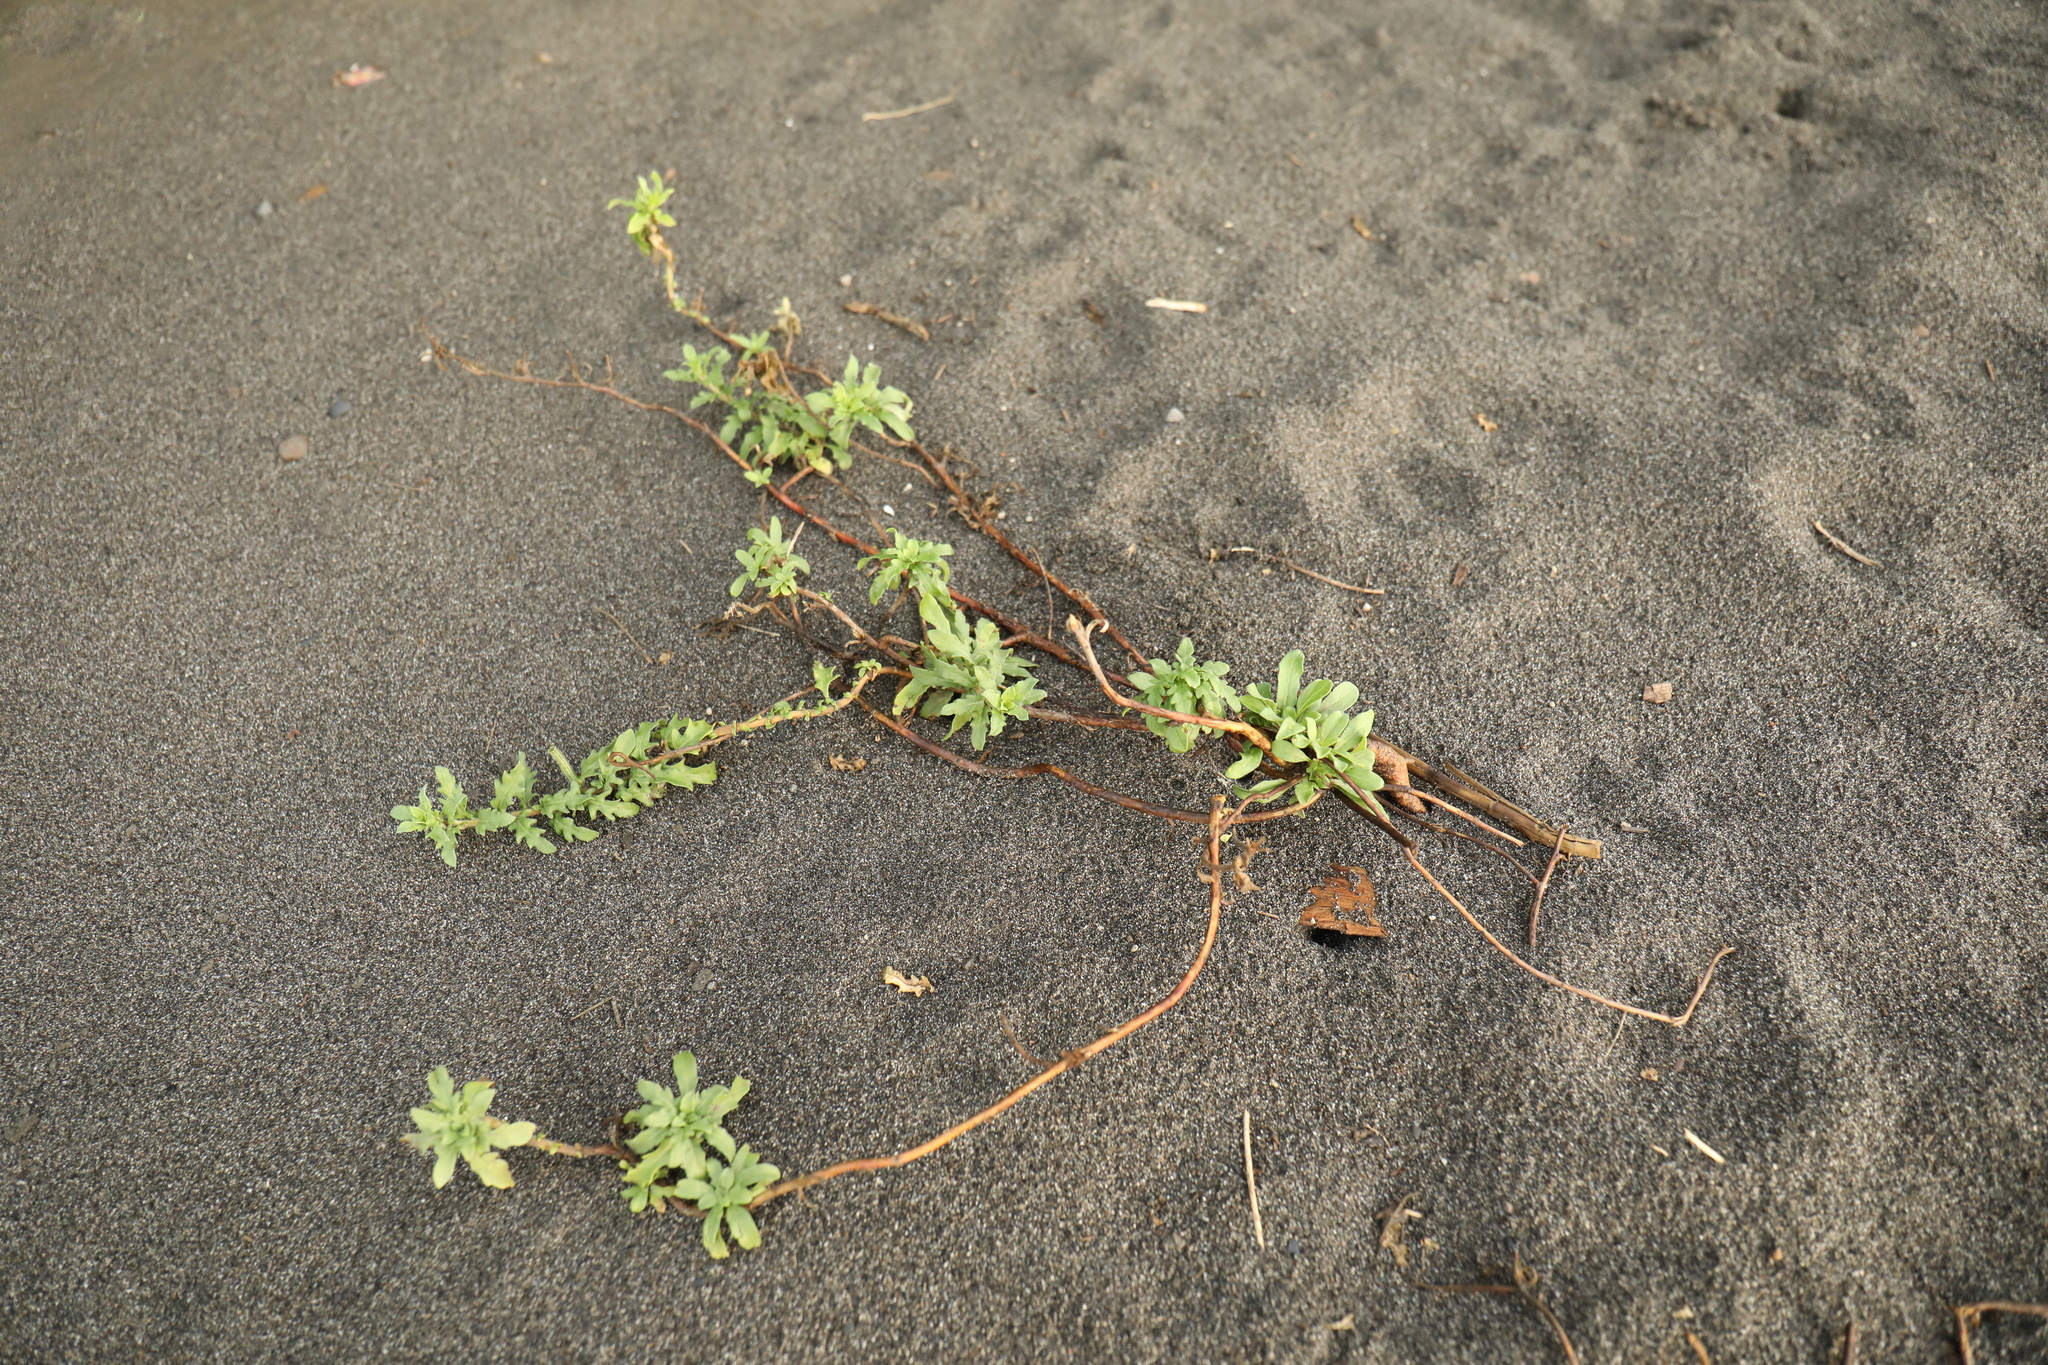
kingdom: Plantae
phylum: Tracheophyta
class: Magnoliopsida
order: Myrtales
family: Onagraceae
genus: Oenothera
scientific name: Oenothera laciniata
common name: Cut-leaved evening-primrose
